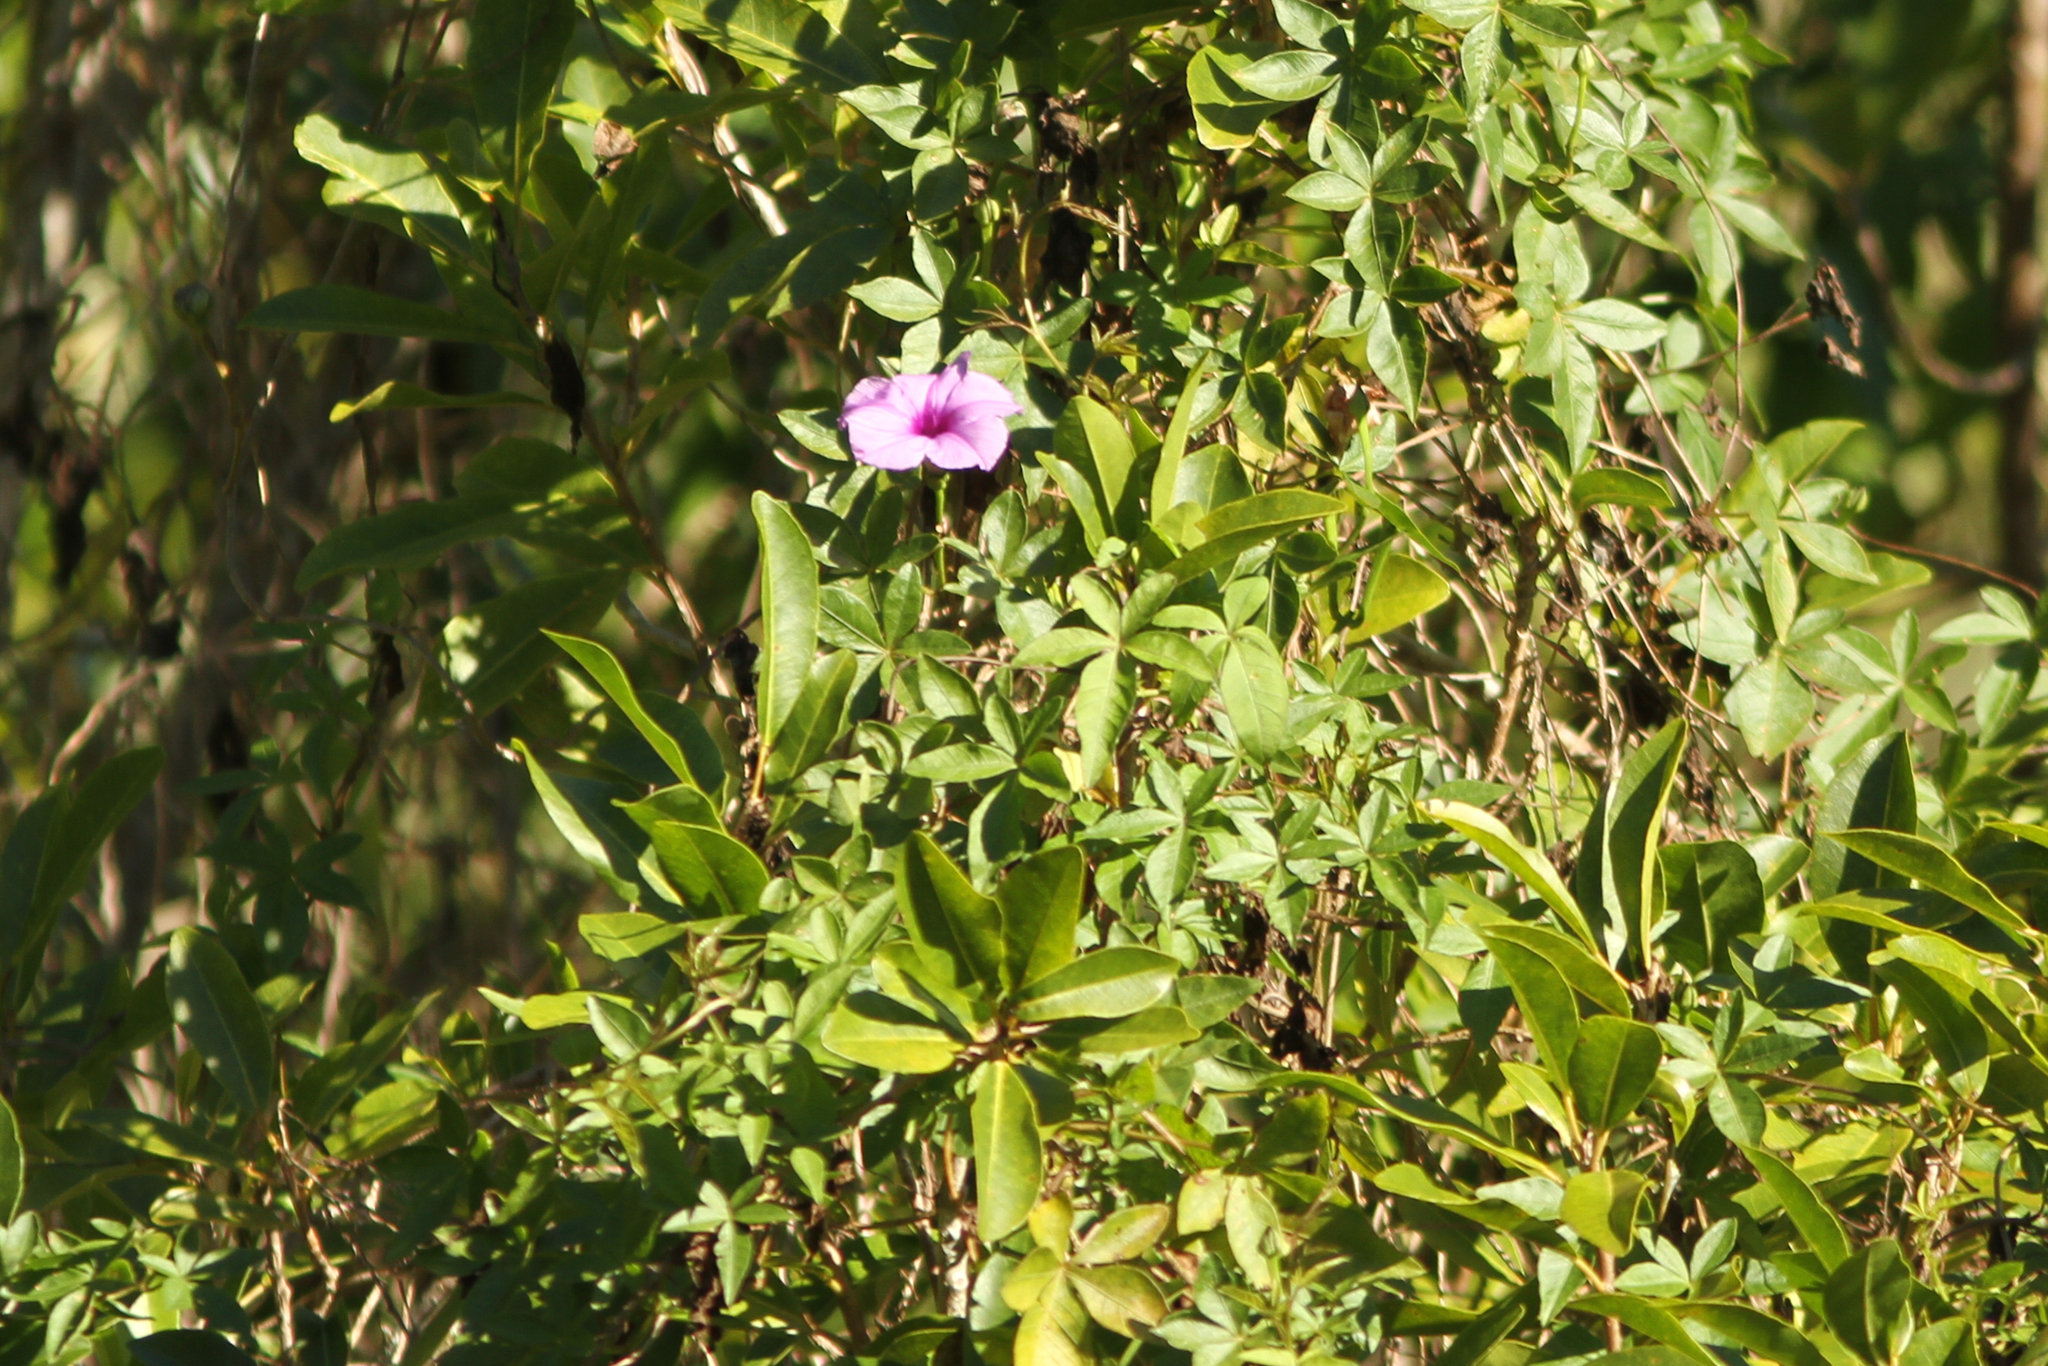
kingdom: Plantae
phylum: Tracheophyta
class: Magnoliopsida
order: Solanales
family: Convolvulaceae
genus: Ipomoea
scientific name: Ipomoea cairica
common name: Mile a minute vine
